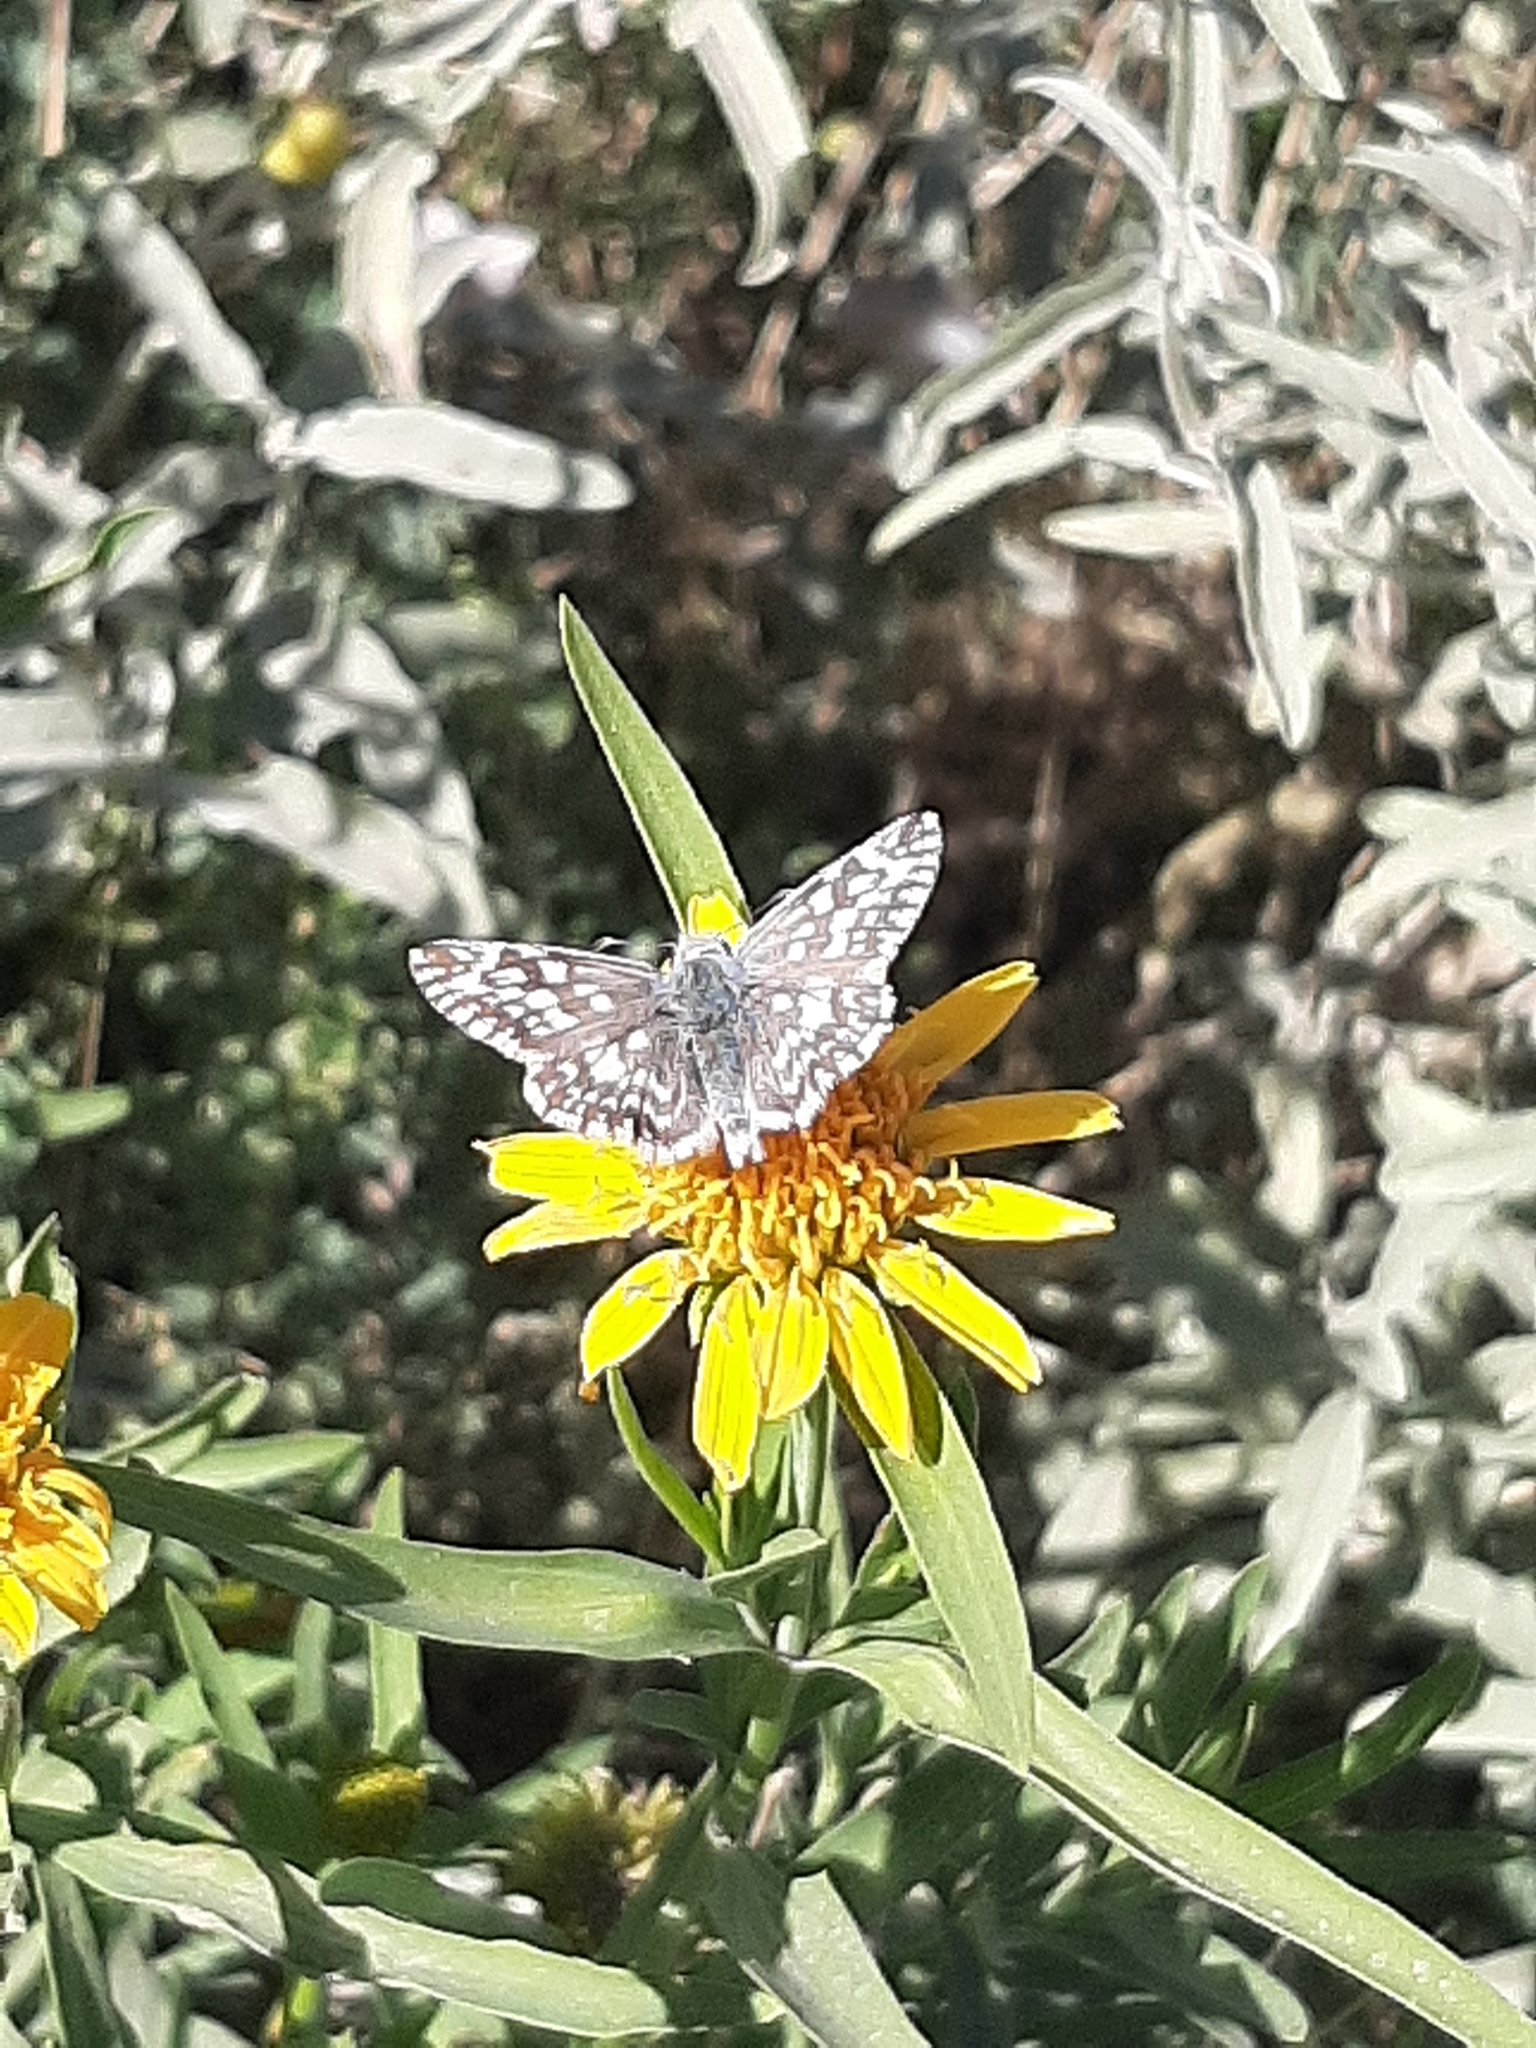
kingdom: Animalia
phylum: Arthropoda
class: Insecta
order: Lepidoptera
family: Hesperiidae
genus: Heliopetes
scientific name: Heliopetes americanus
